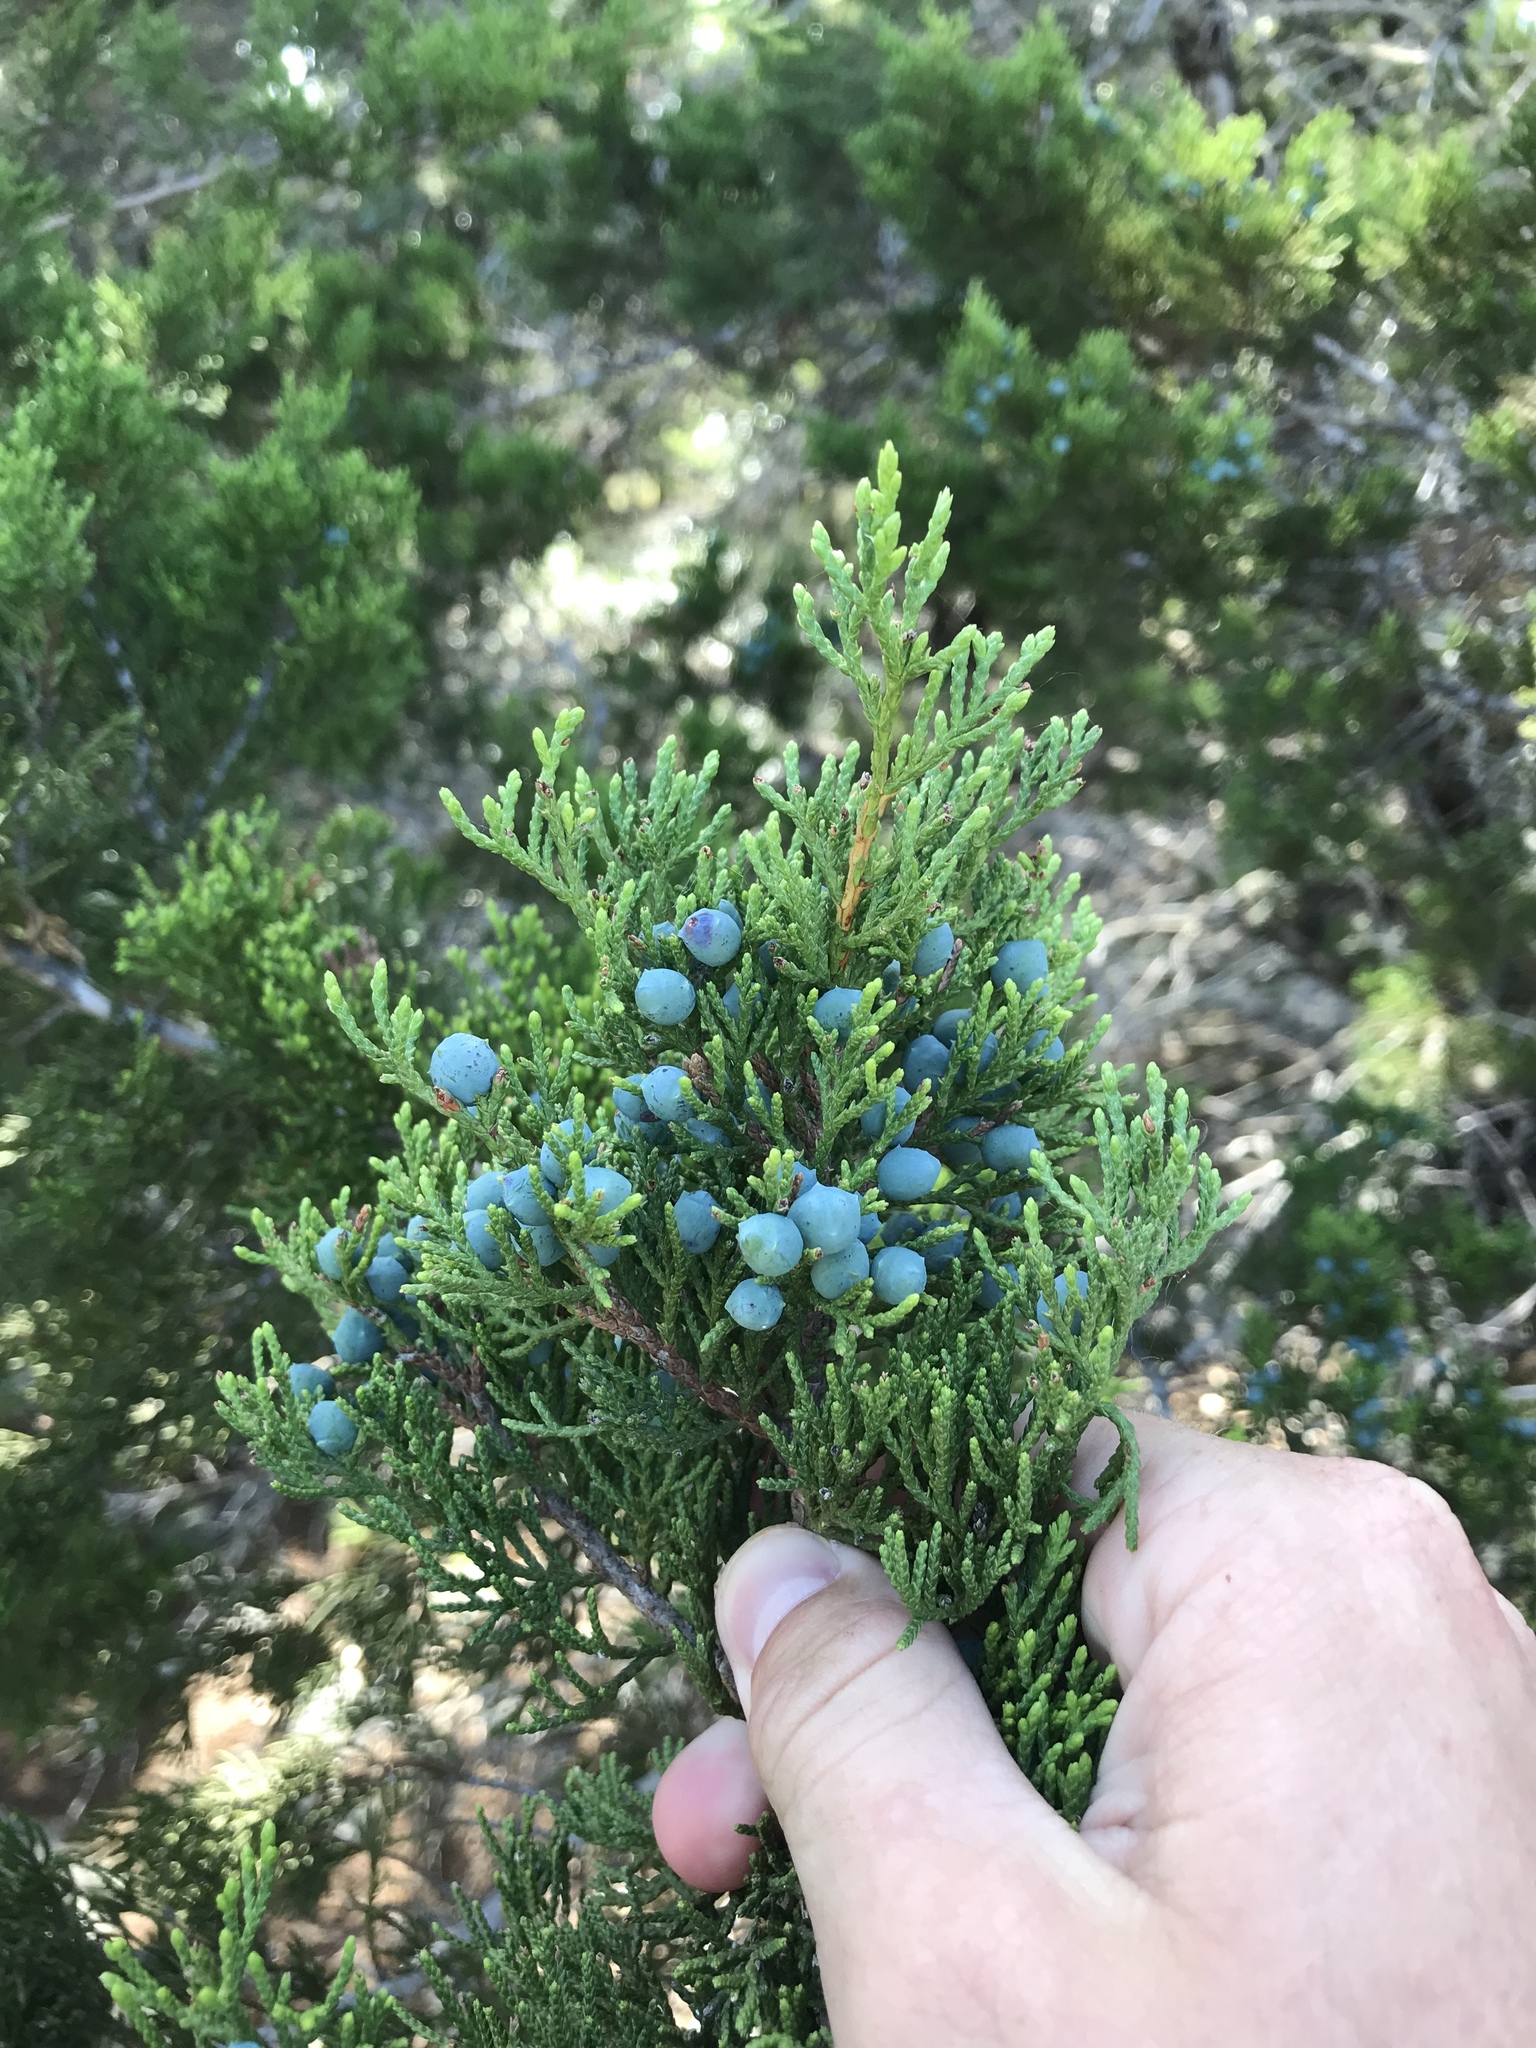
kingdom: Plantae
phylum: Tracheophyta
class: Pinopsida
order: Pinales
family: Cupressaceae
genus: Juniperus
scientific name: Juniperus ashei
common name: Mexican juniper
